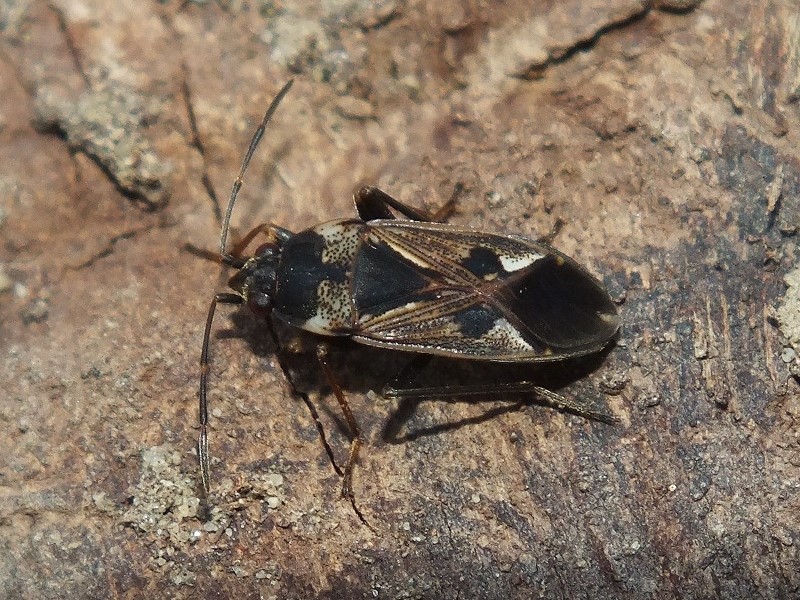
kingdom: Animalia
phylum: Arthropoda
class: Insecta
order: Hemiptera
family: Rhyparochromidae
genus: Rhyparochromus
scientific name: Rhyparochromus vulgaris
